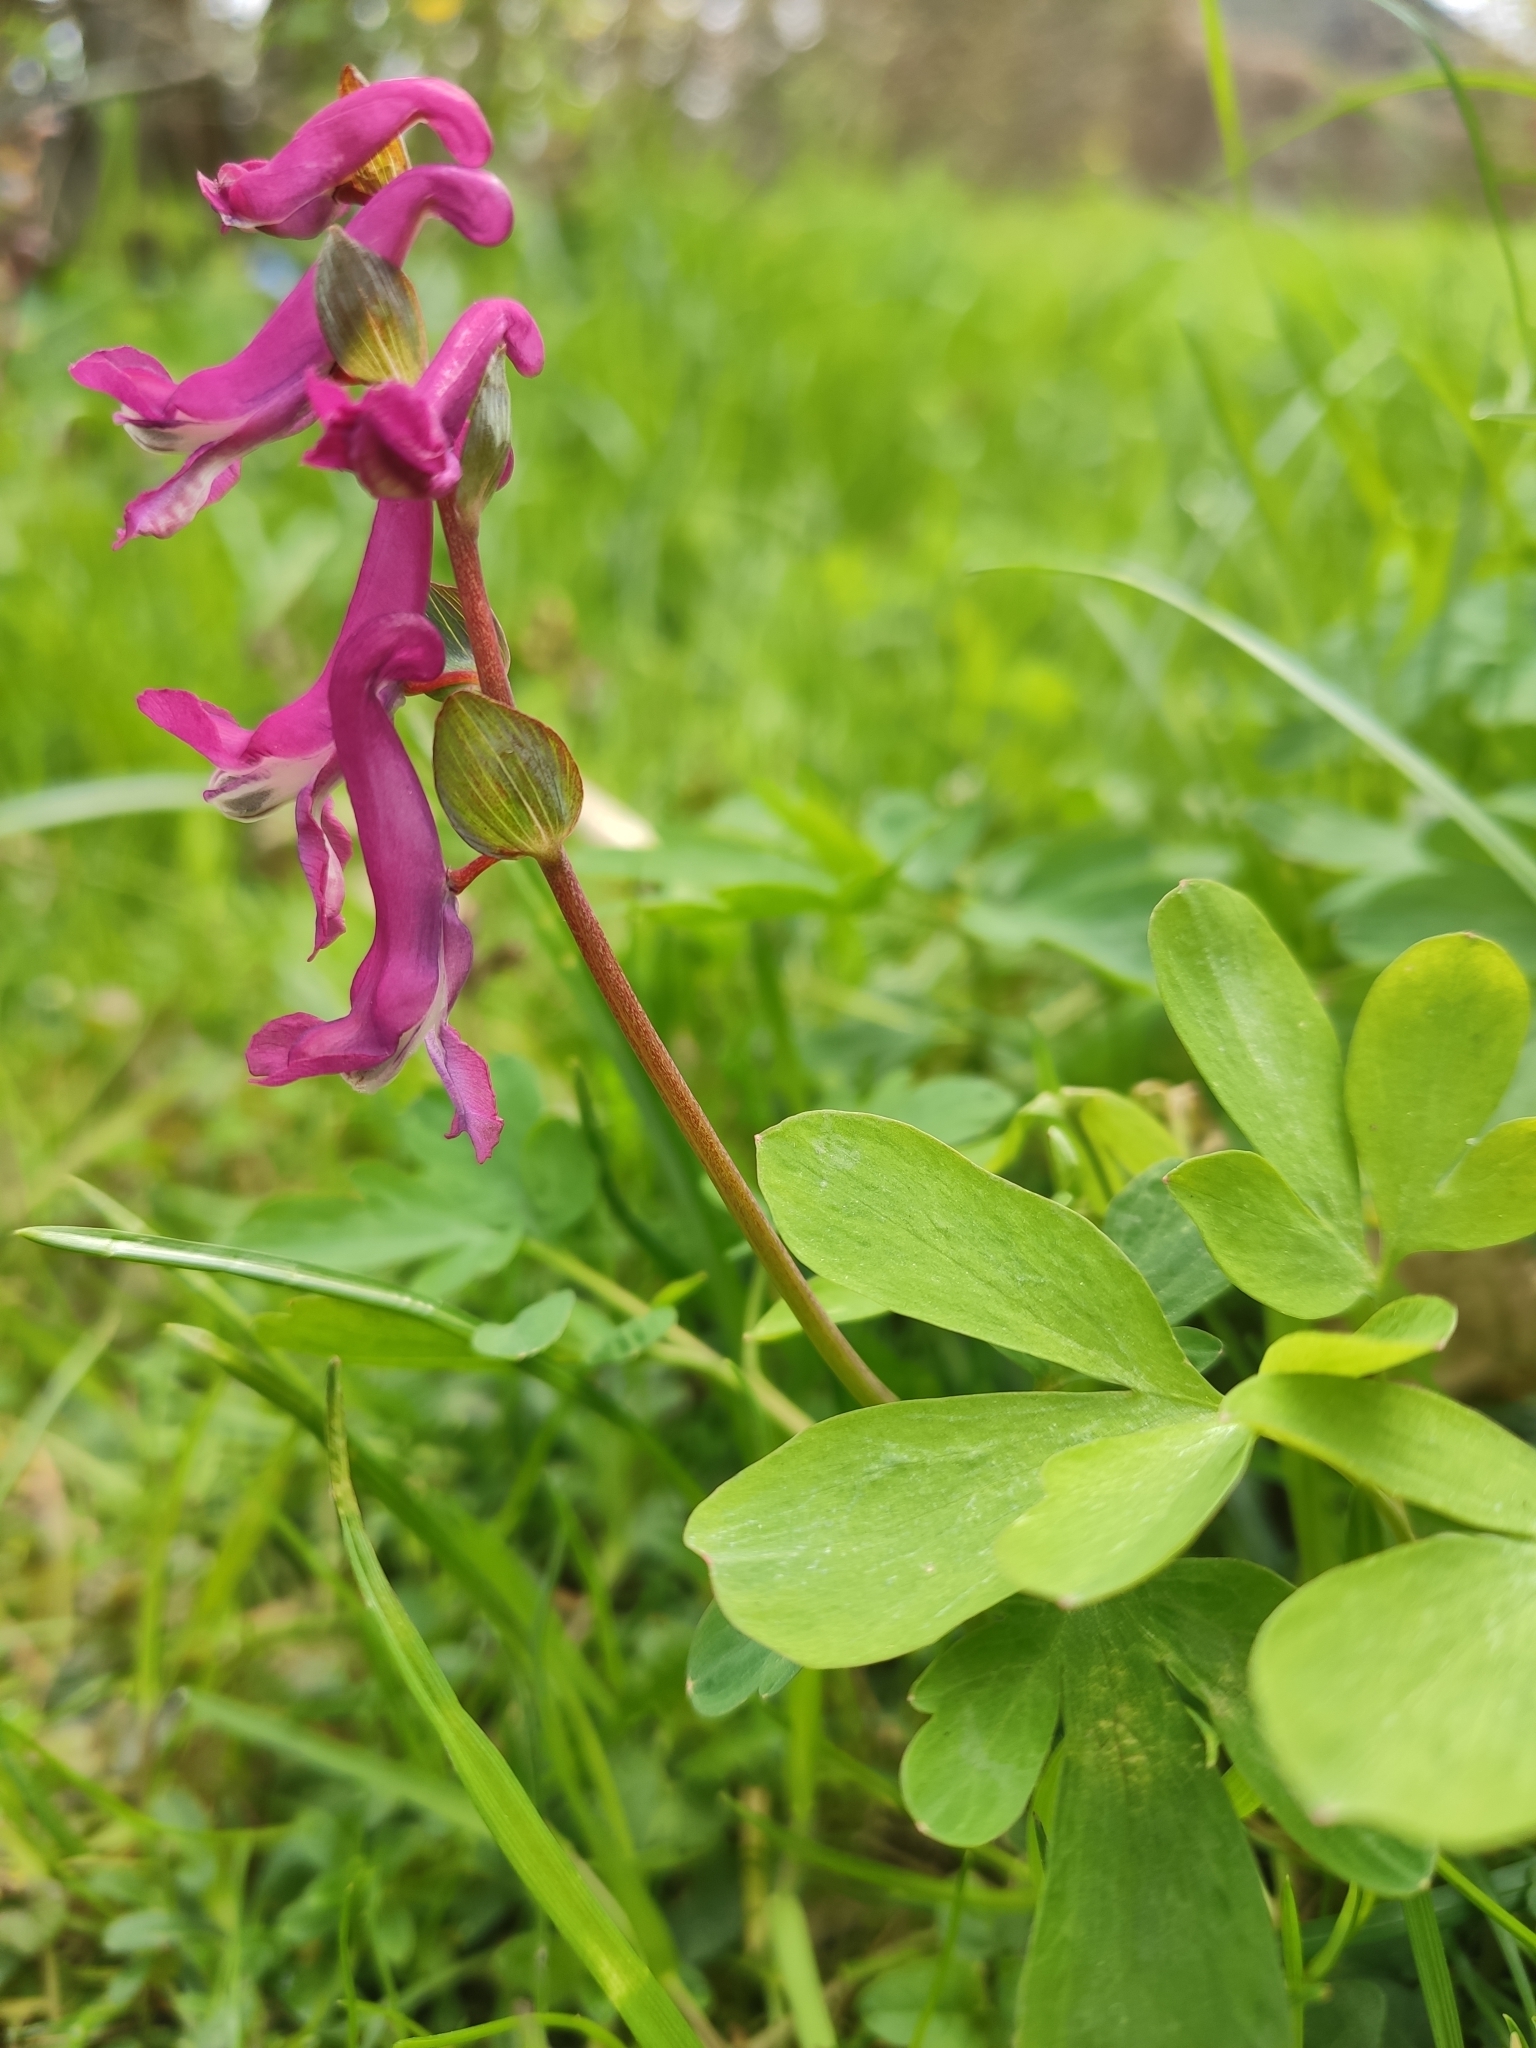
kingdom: Plantae
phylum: Tracheophyta
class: Magnoliopsida
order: Ranunculales
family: Papaveraceae
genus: Corydalis
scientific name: Corydalis cava
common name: Hollowroot
